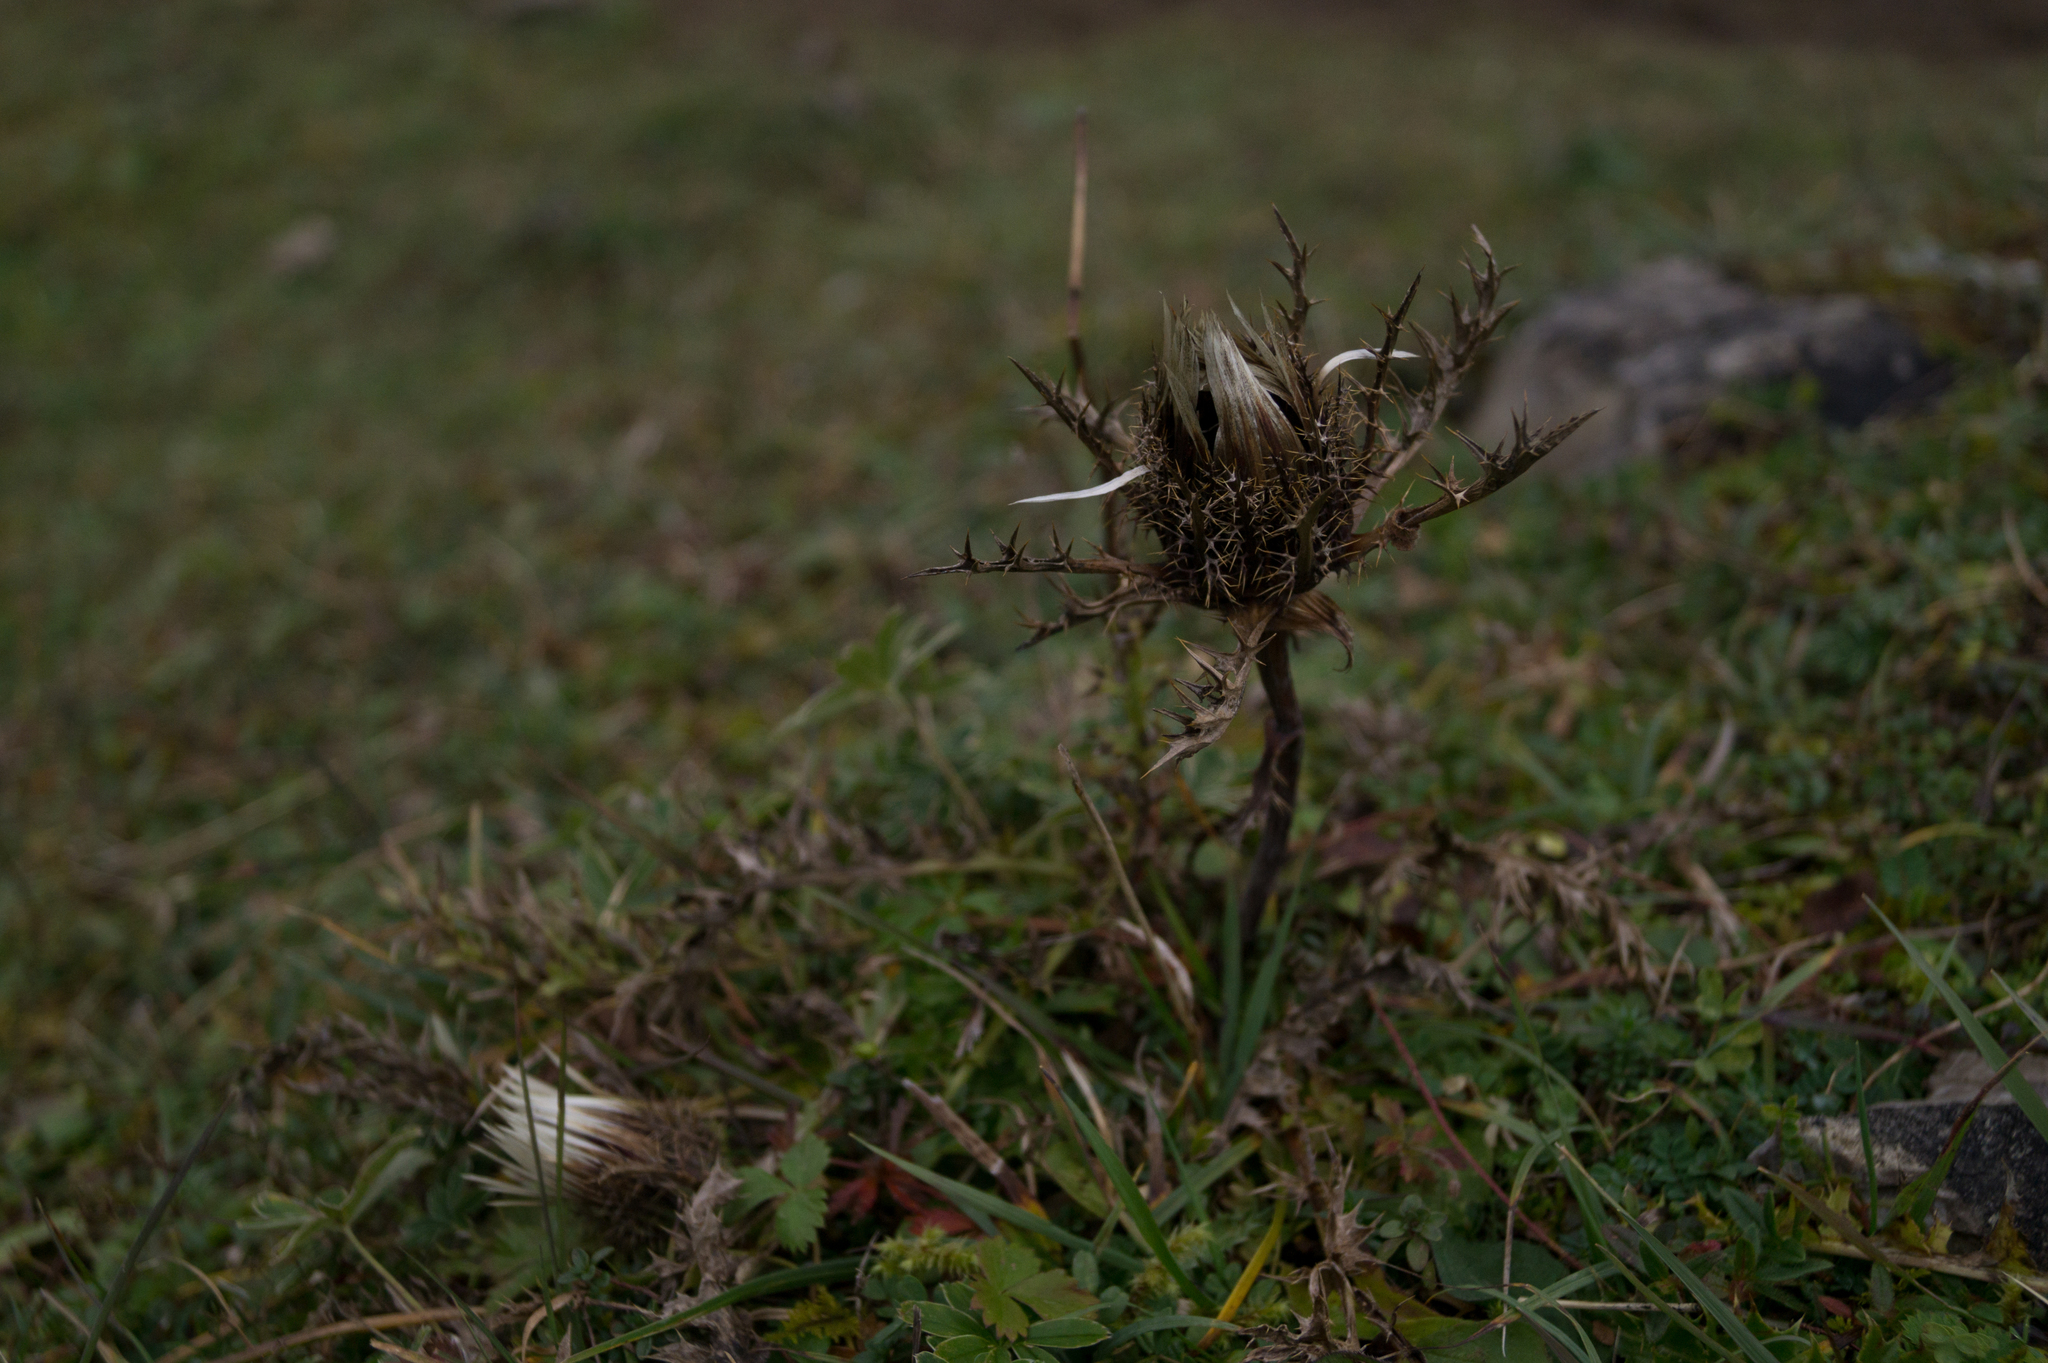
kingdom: Plantae
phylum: Tracheophyta
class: Magnoliopsida
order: Asterales
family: Asteraceae
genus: Carlina
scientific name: Carlina acaulis
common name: Stemless carline thistle
